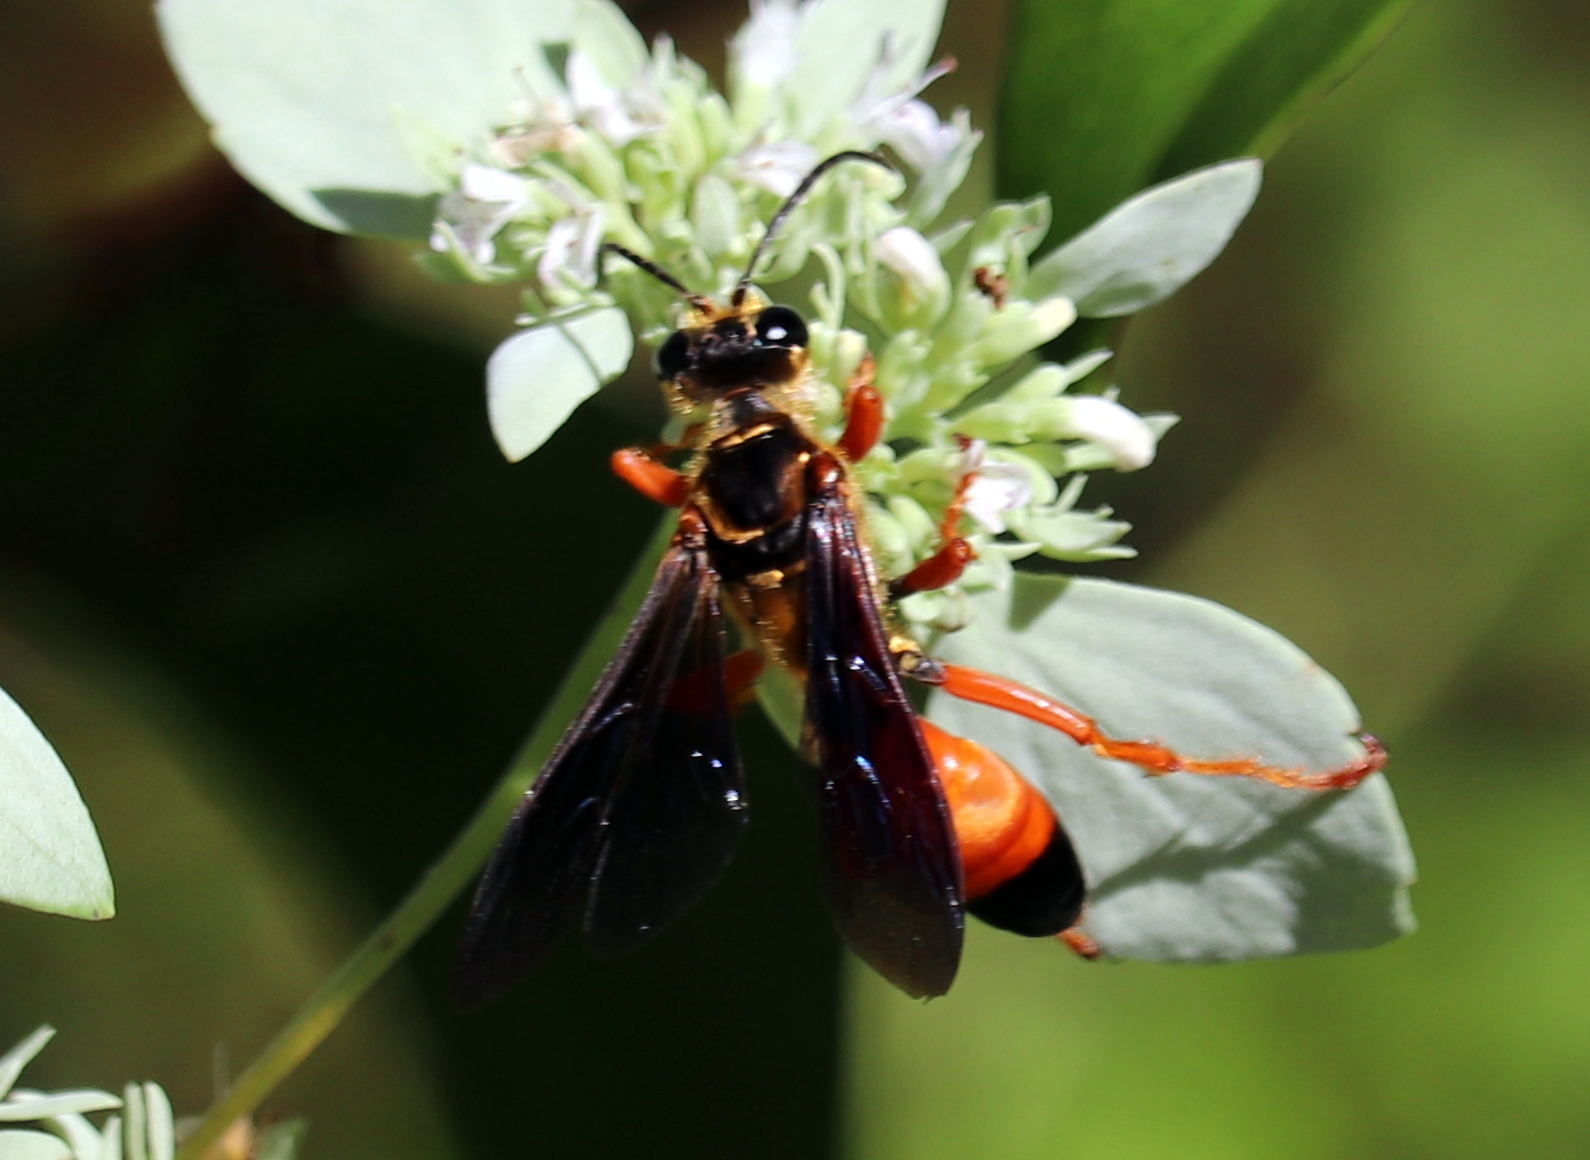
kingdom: Animalia
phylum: Arthropoda
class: Insecta
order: Hymenoptera
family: Sphecidae
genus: Sphex
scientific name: Sphex ichneumoneus
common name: Great golden digger wasp
